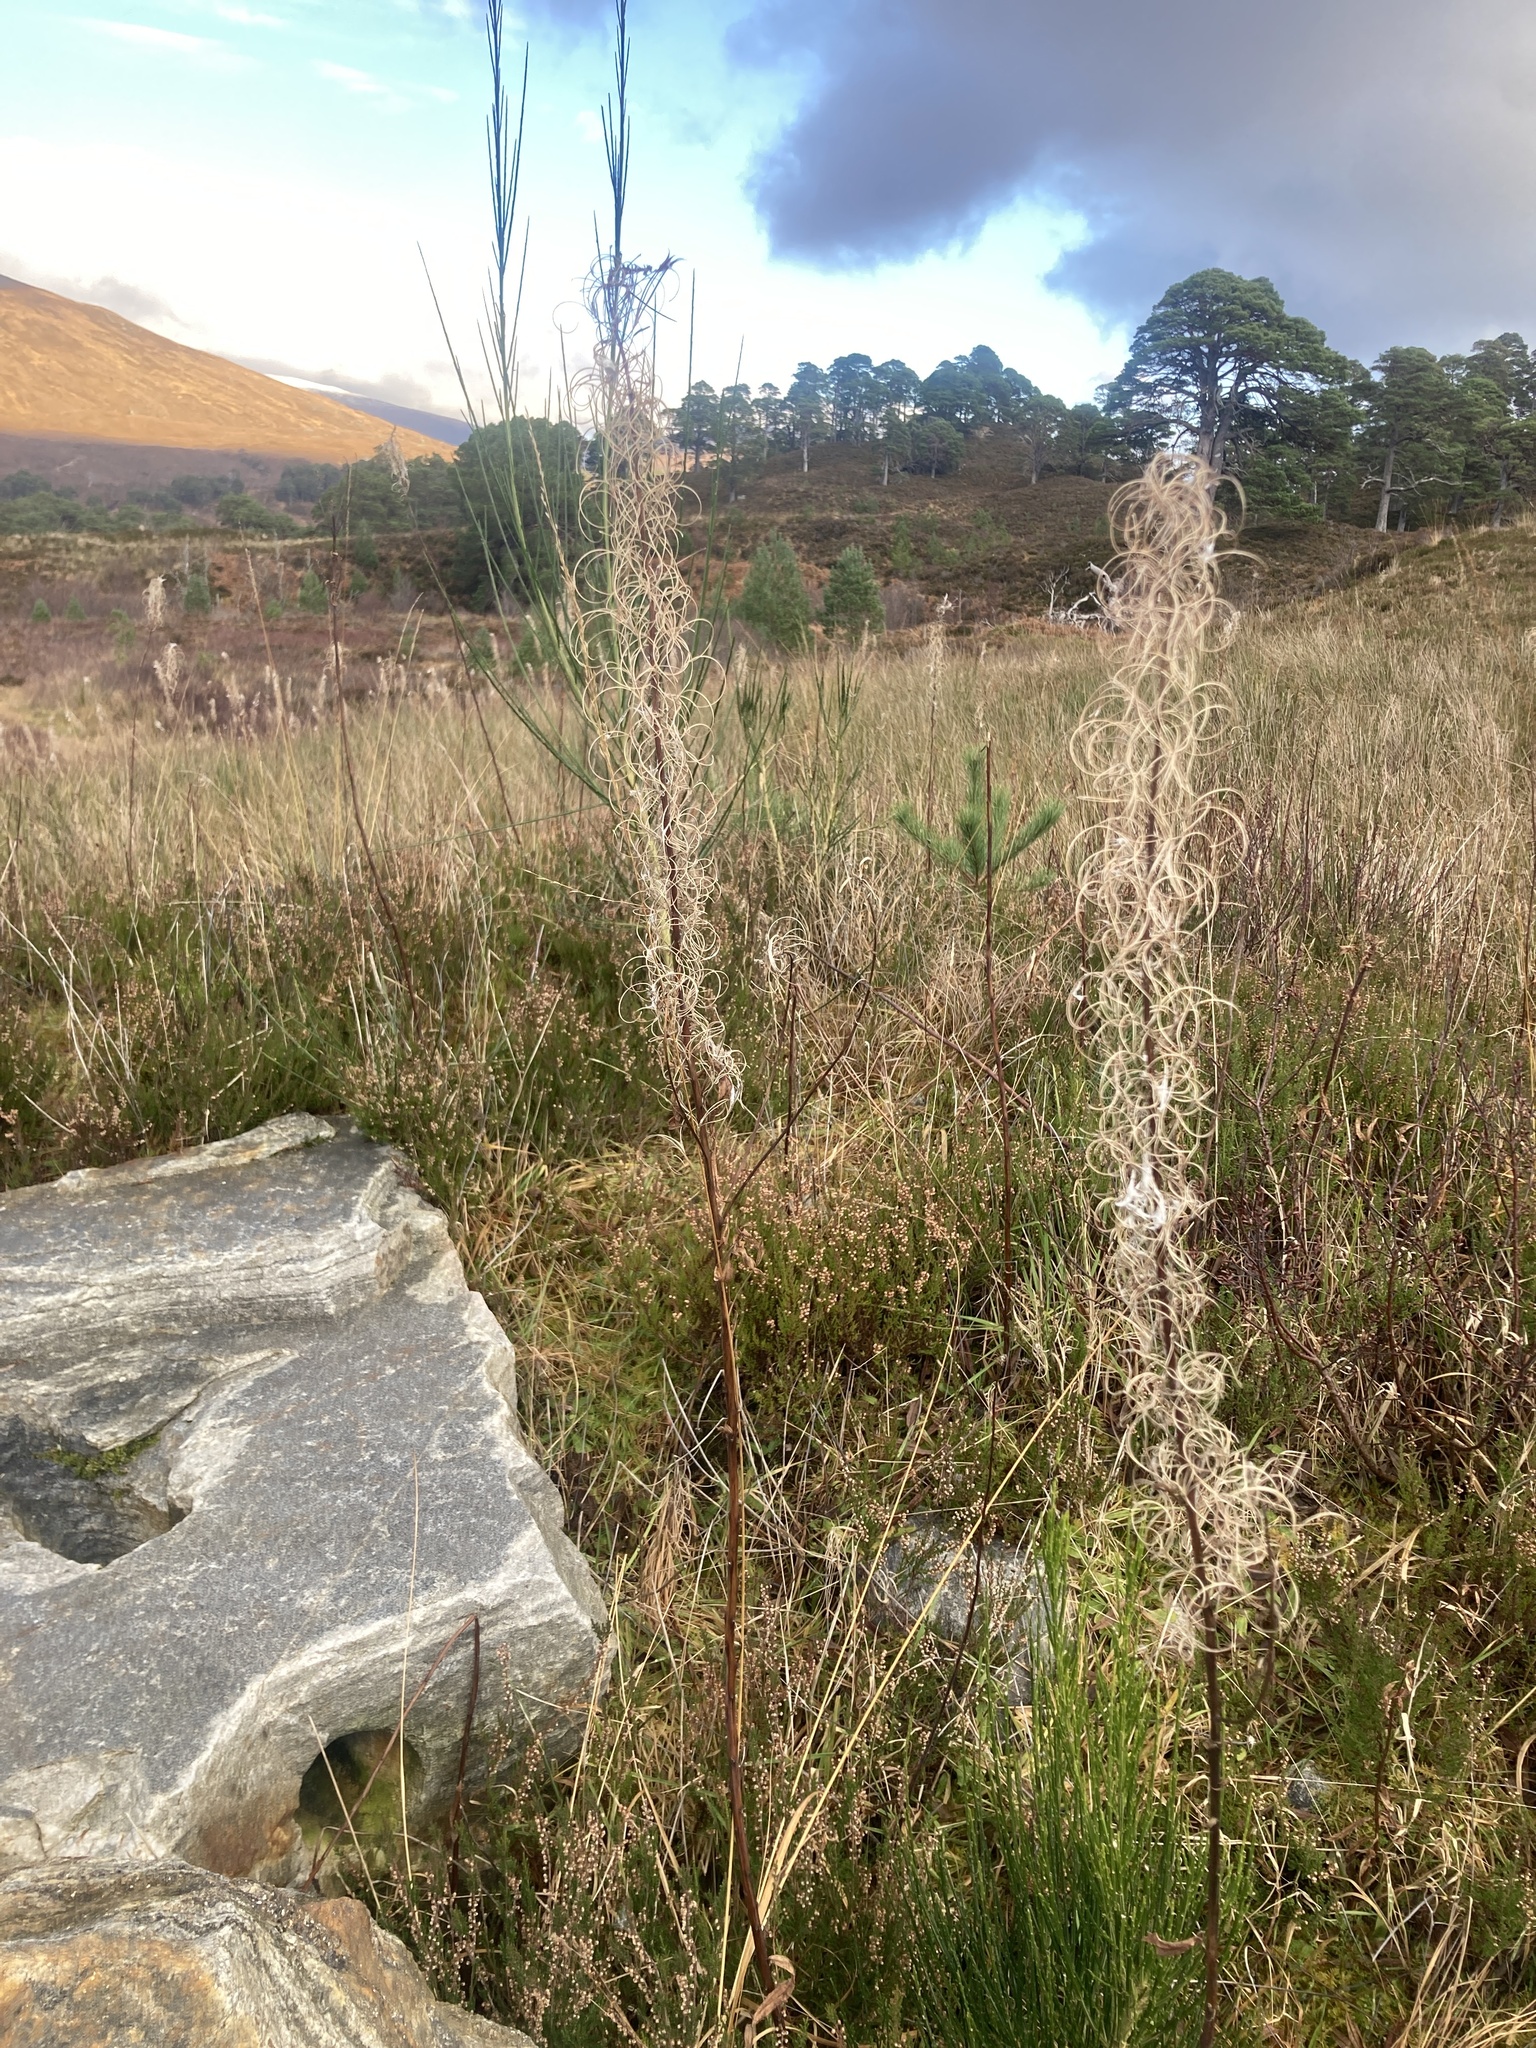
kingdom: Plantae
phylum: Tracheophyta
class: Magnoliopsida
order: Myrtales
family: Onagraceae
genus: Chamaenerion
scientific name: Chamaenerion angustifolium
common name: Fireweed
